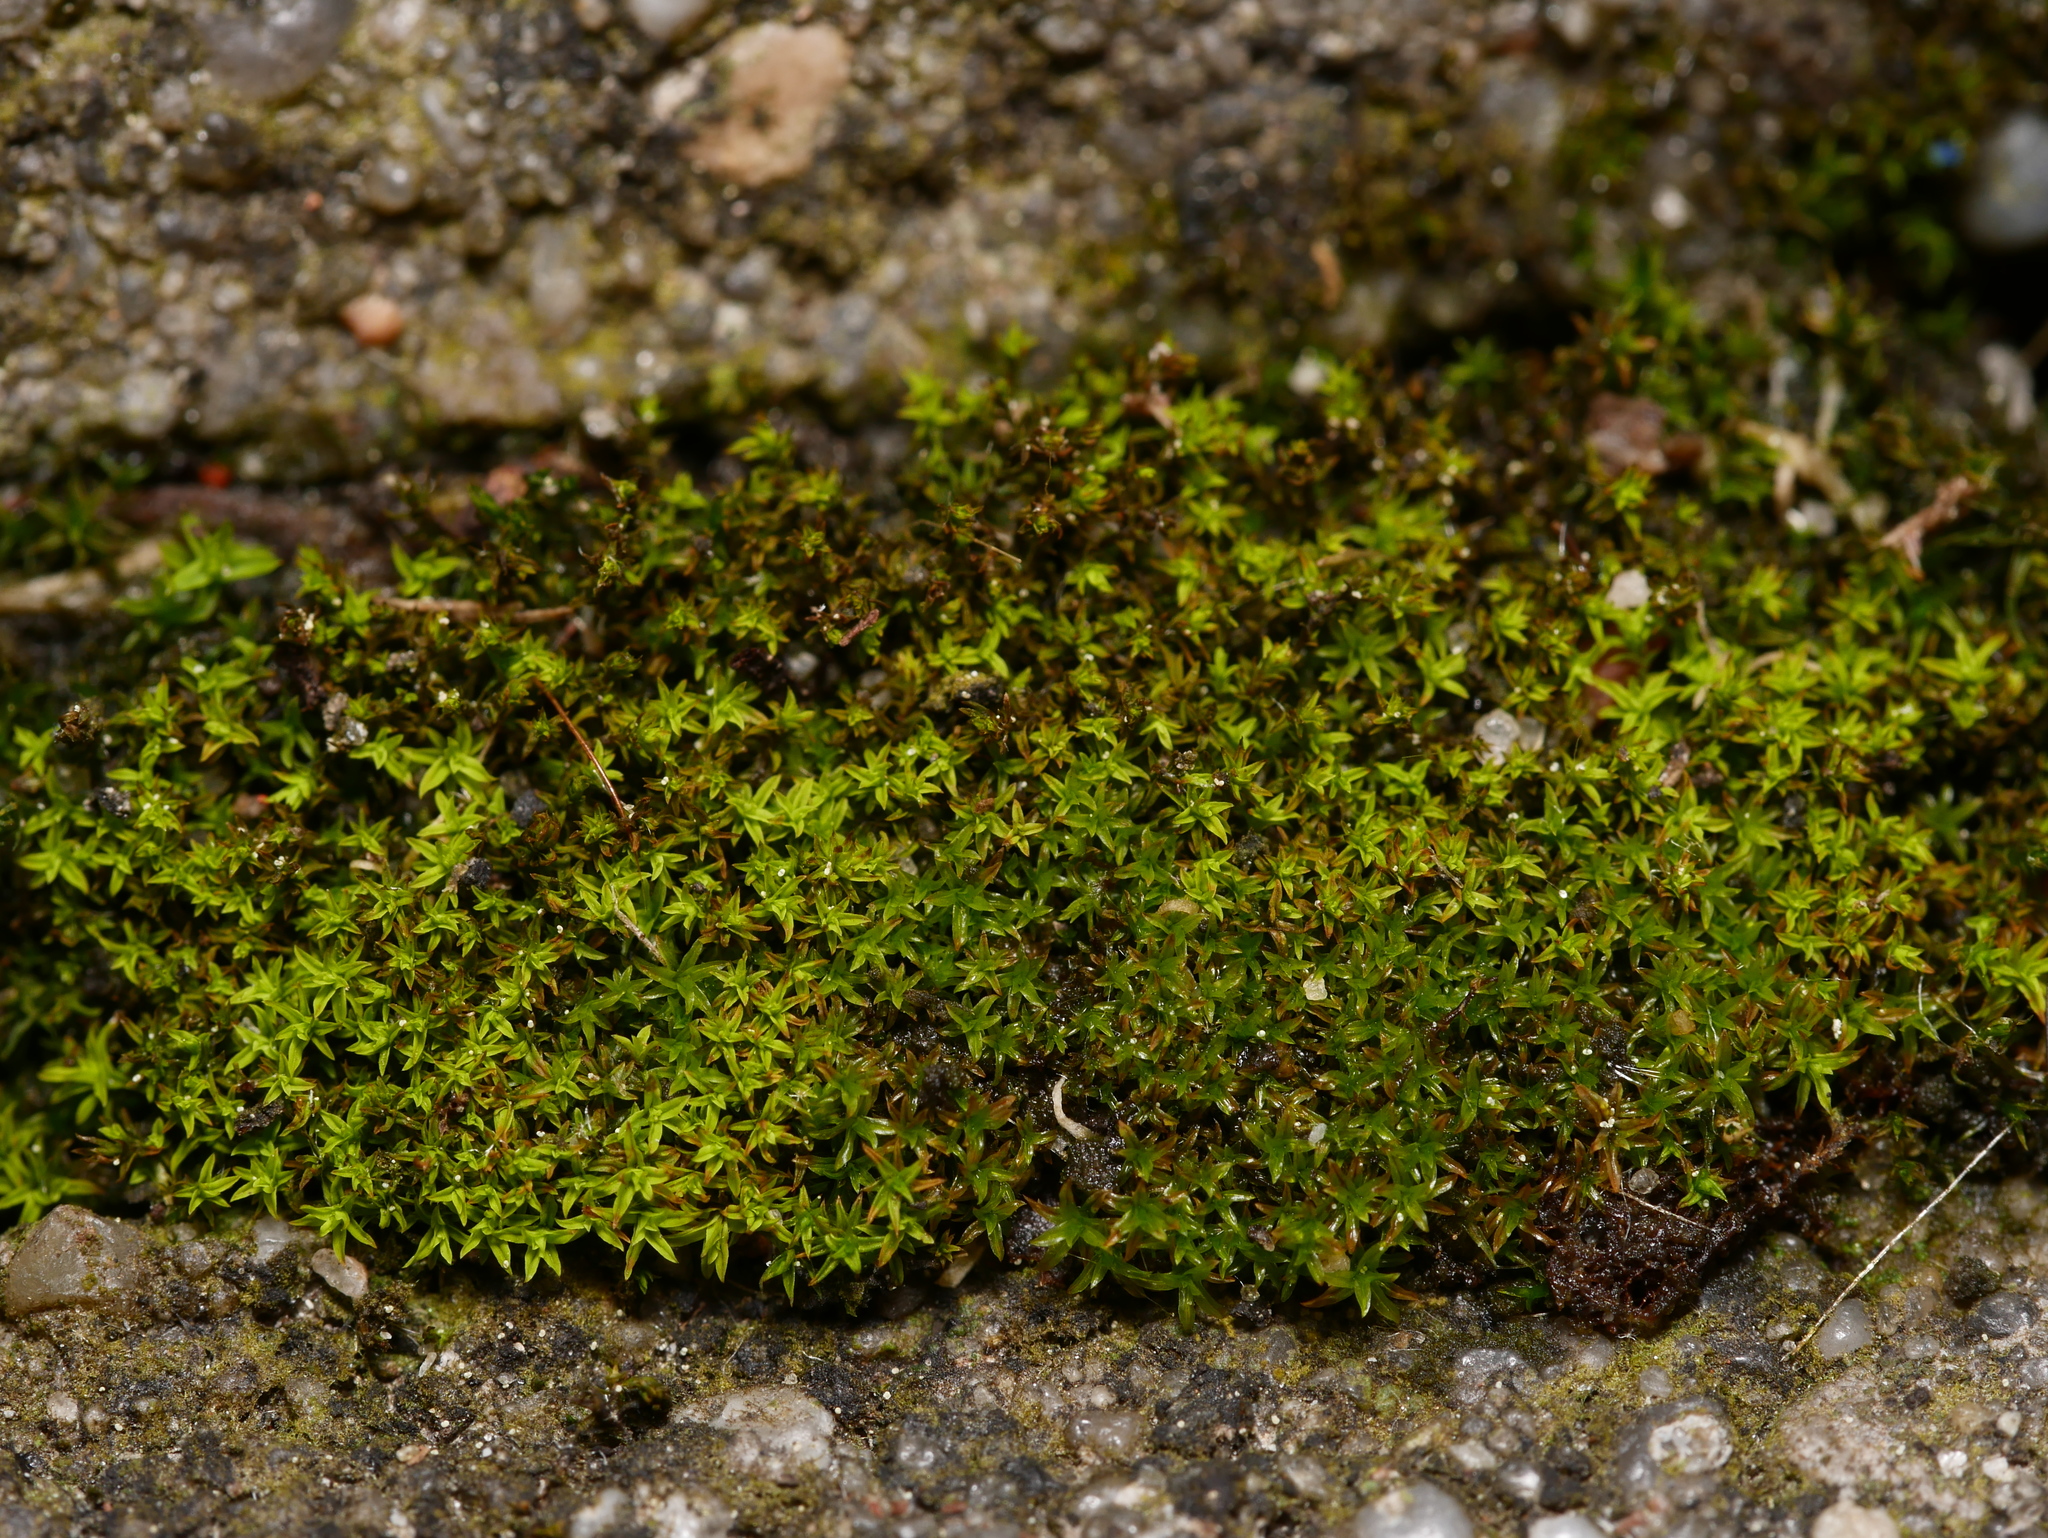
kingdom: Plantae
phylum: Bryophyta
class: Bryopsida
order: Pottiales
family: Pottiaceae
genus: Barbula
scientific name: Barbula unguiculata
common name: Prickly beard moss
